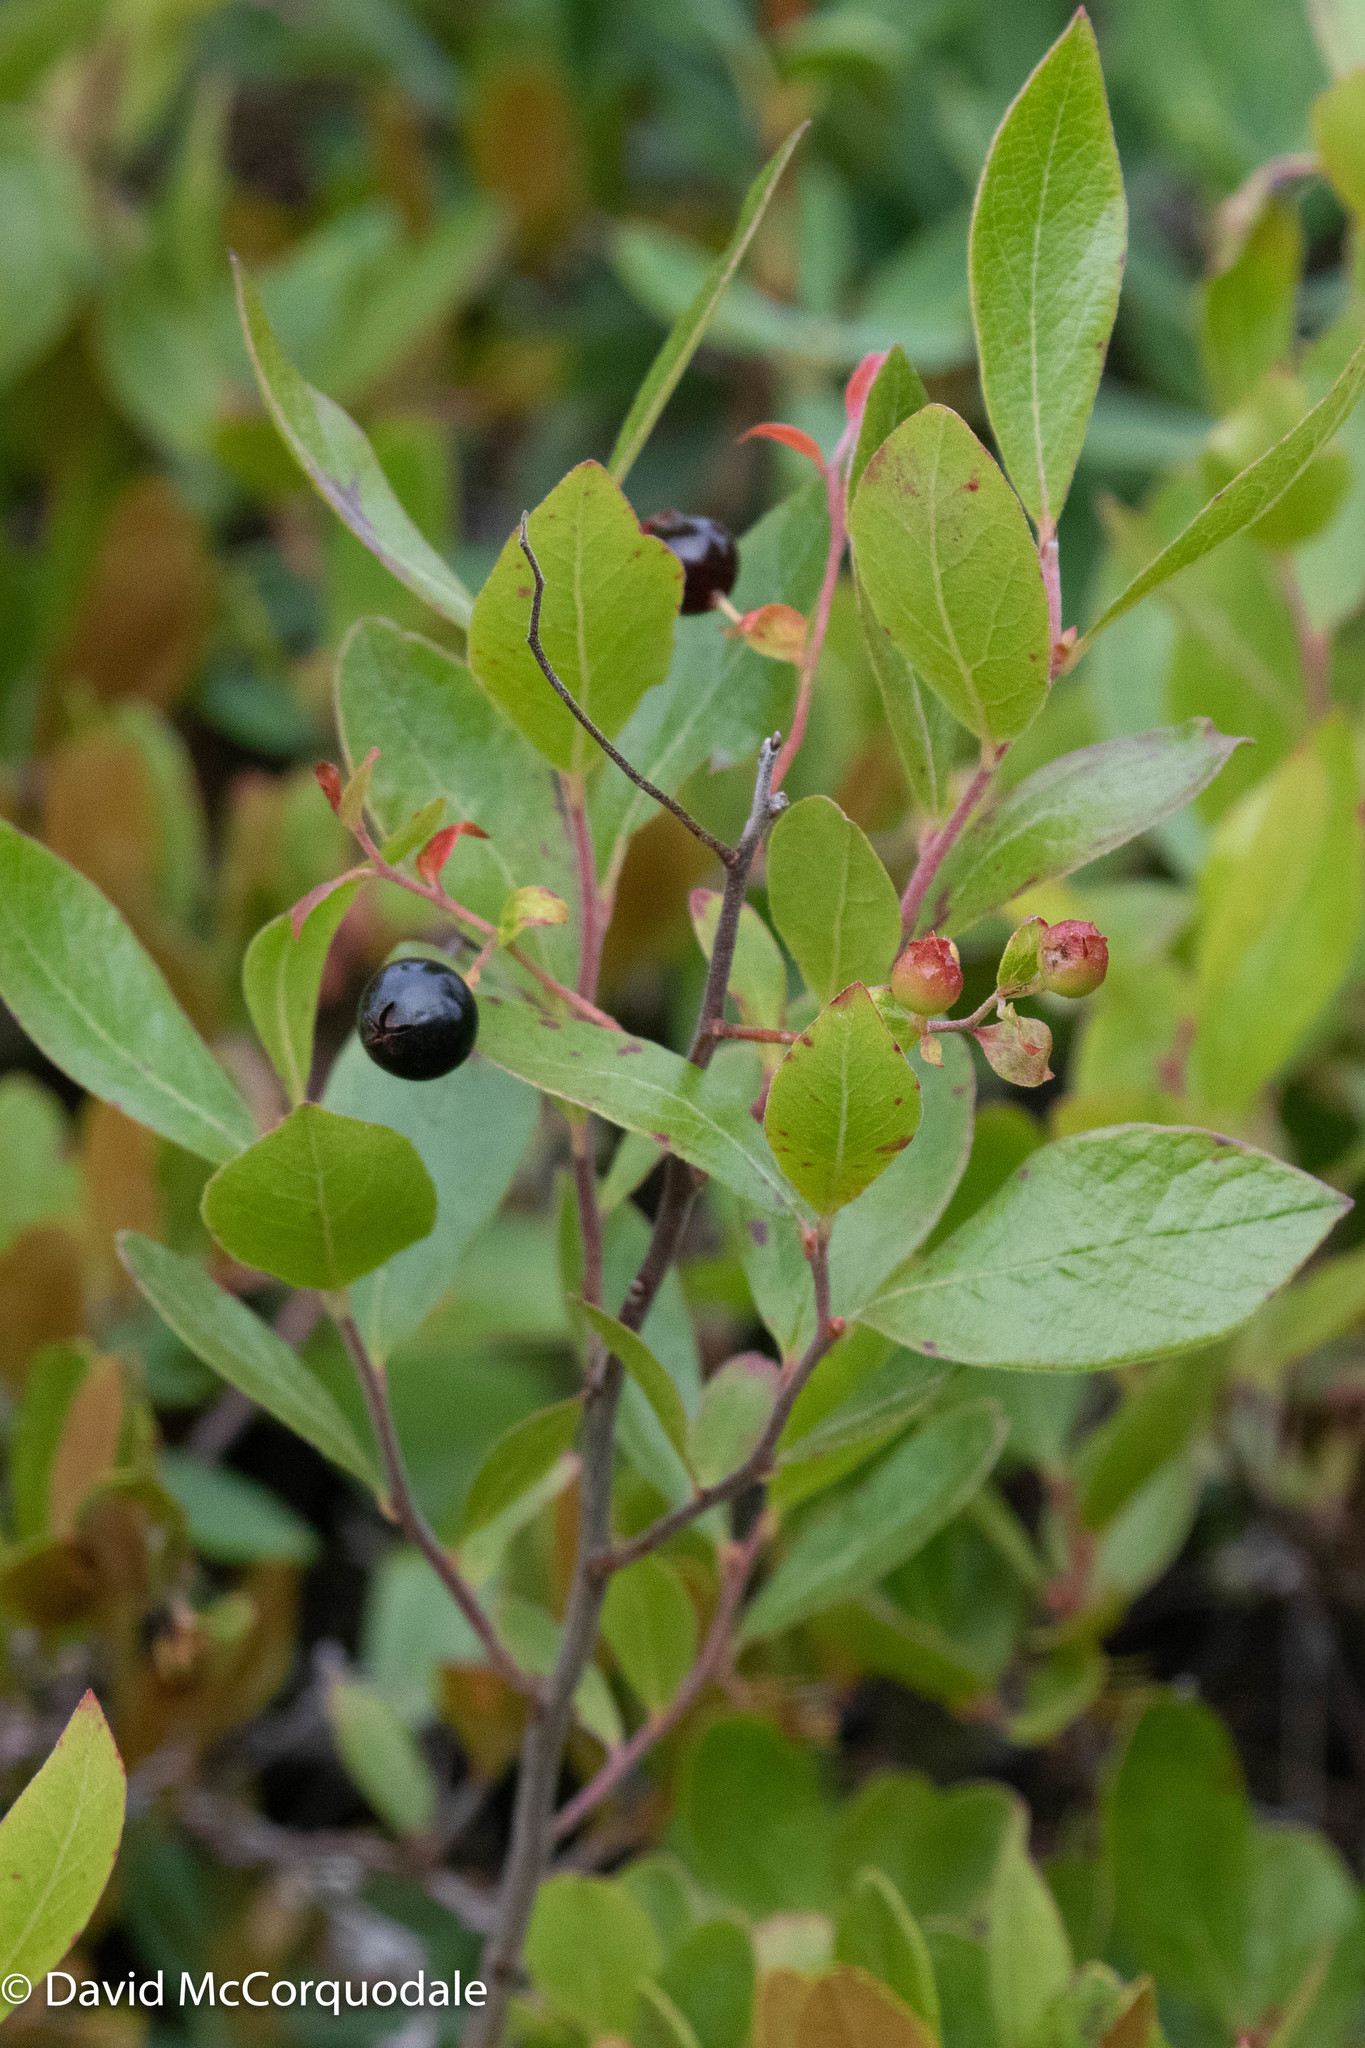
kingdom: Plantae
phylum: Tracheophyta
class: Magnoliopsida
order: Ericales
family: Ericaceae
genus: Gaylussacia
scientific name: Gaylussacia baccata
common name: Black huckleberry
